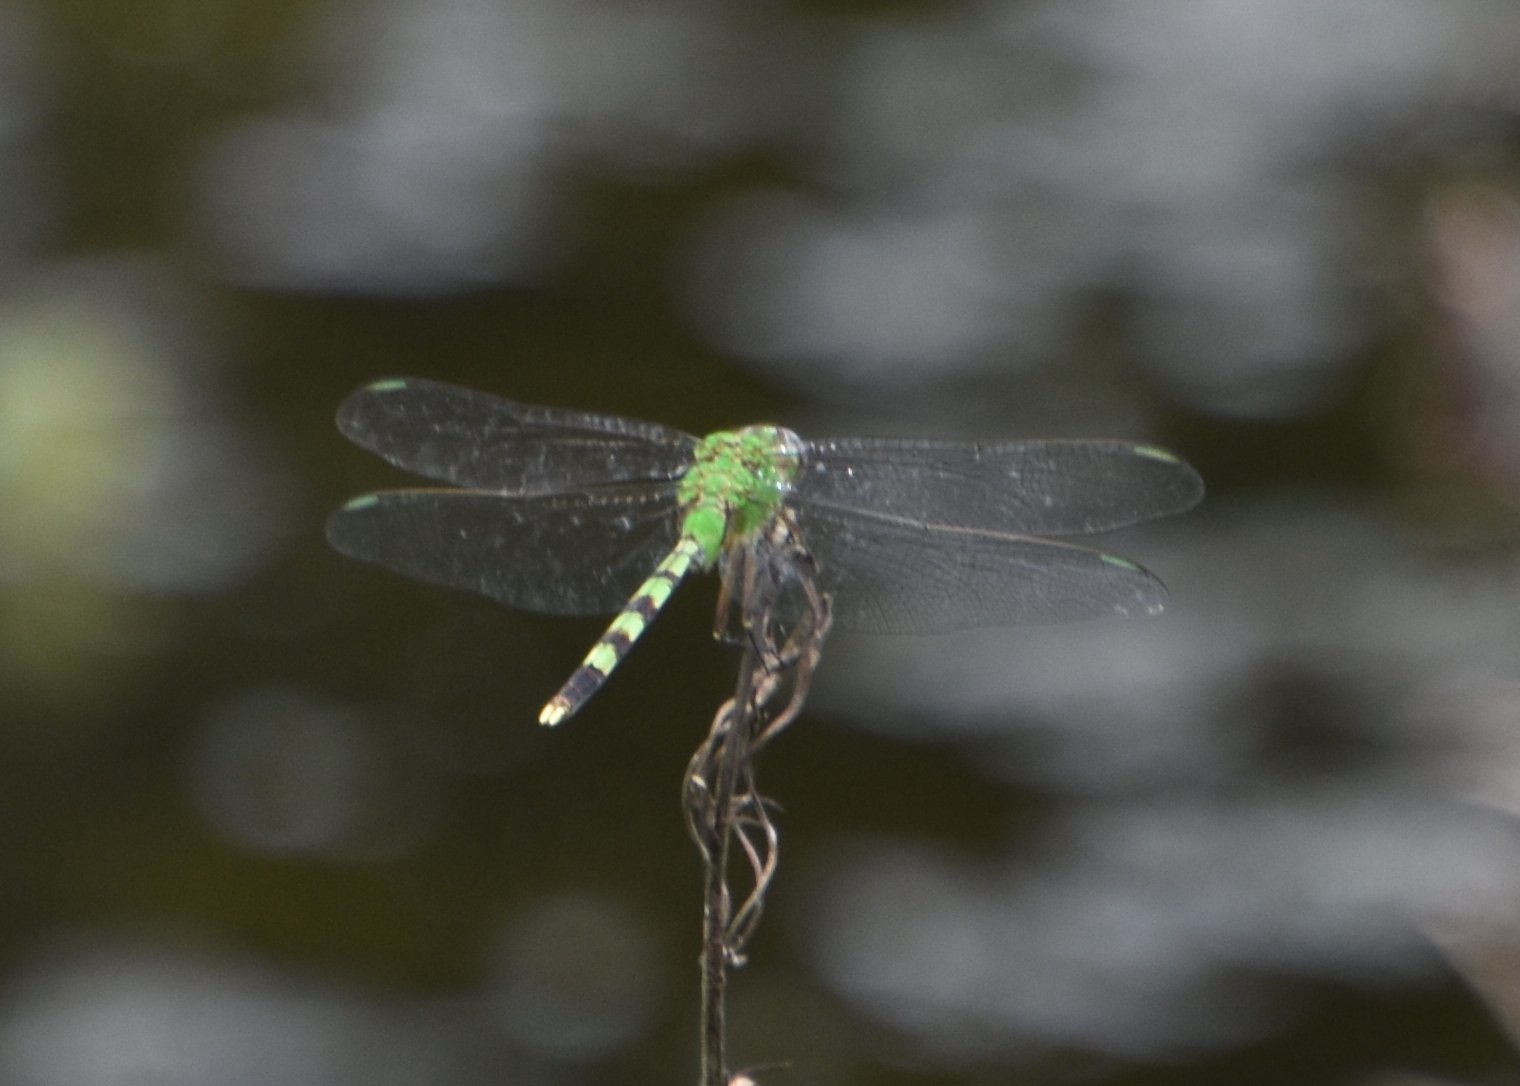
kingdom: Animalia
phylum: Arthropoda
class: Insecta
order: Odonata
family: Libellulidae
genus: Erythemis
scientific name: Erythemis vesiculosa
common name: Great pondhawk
